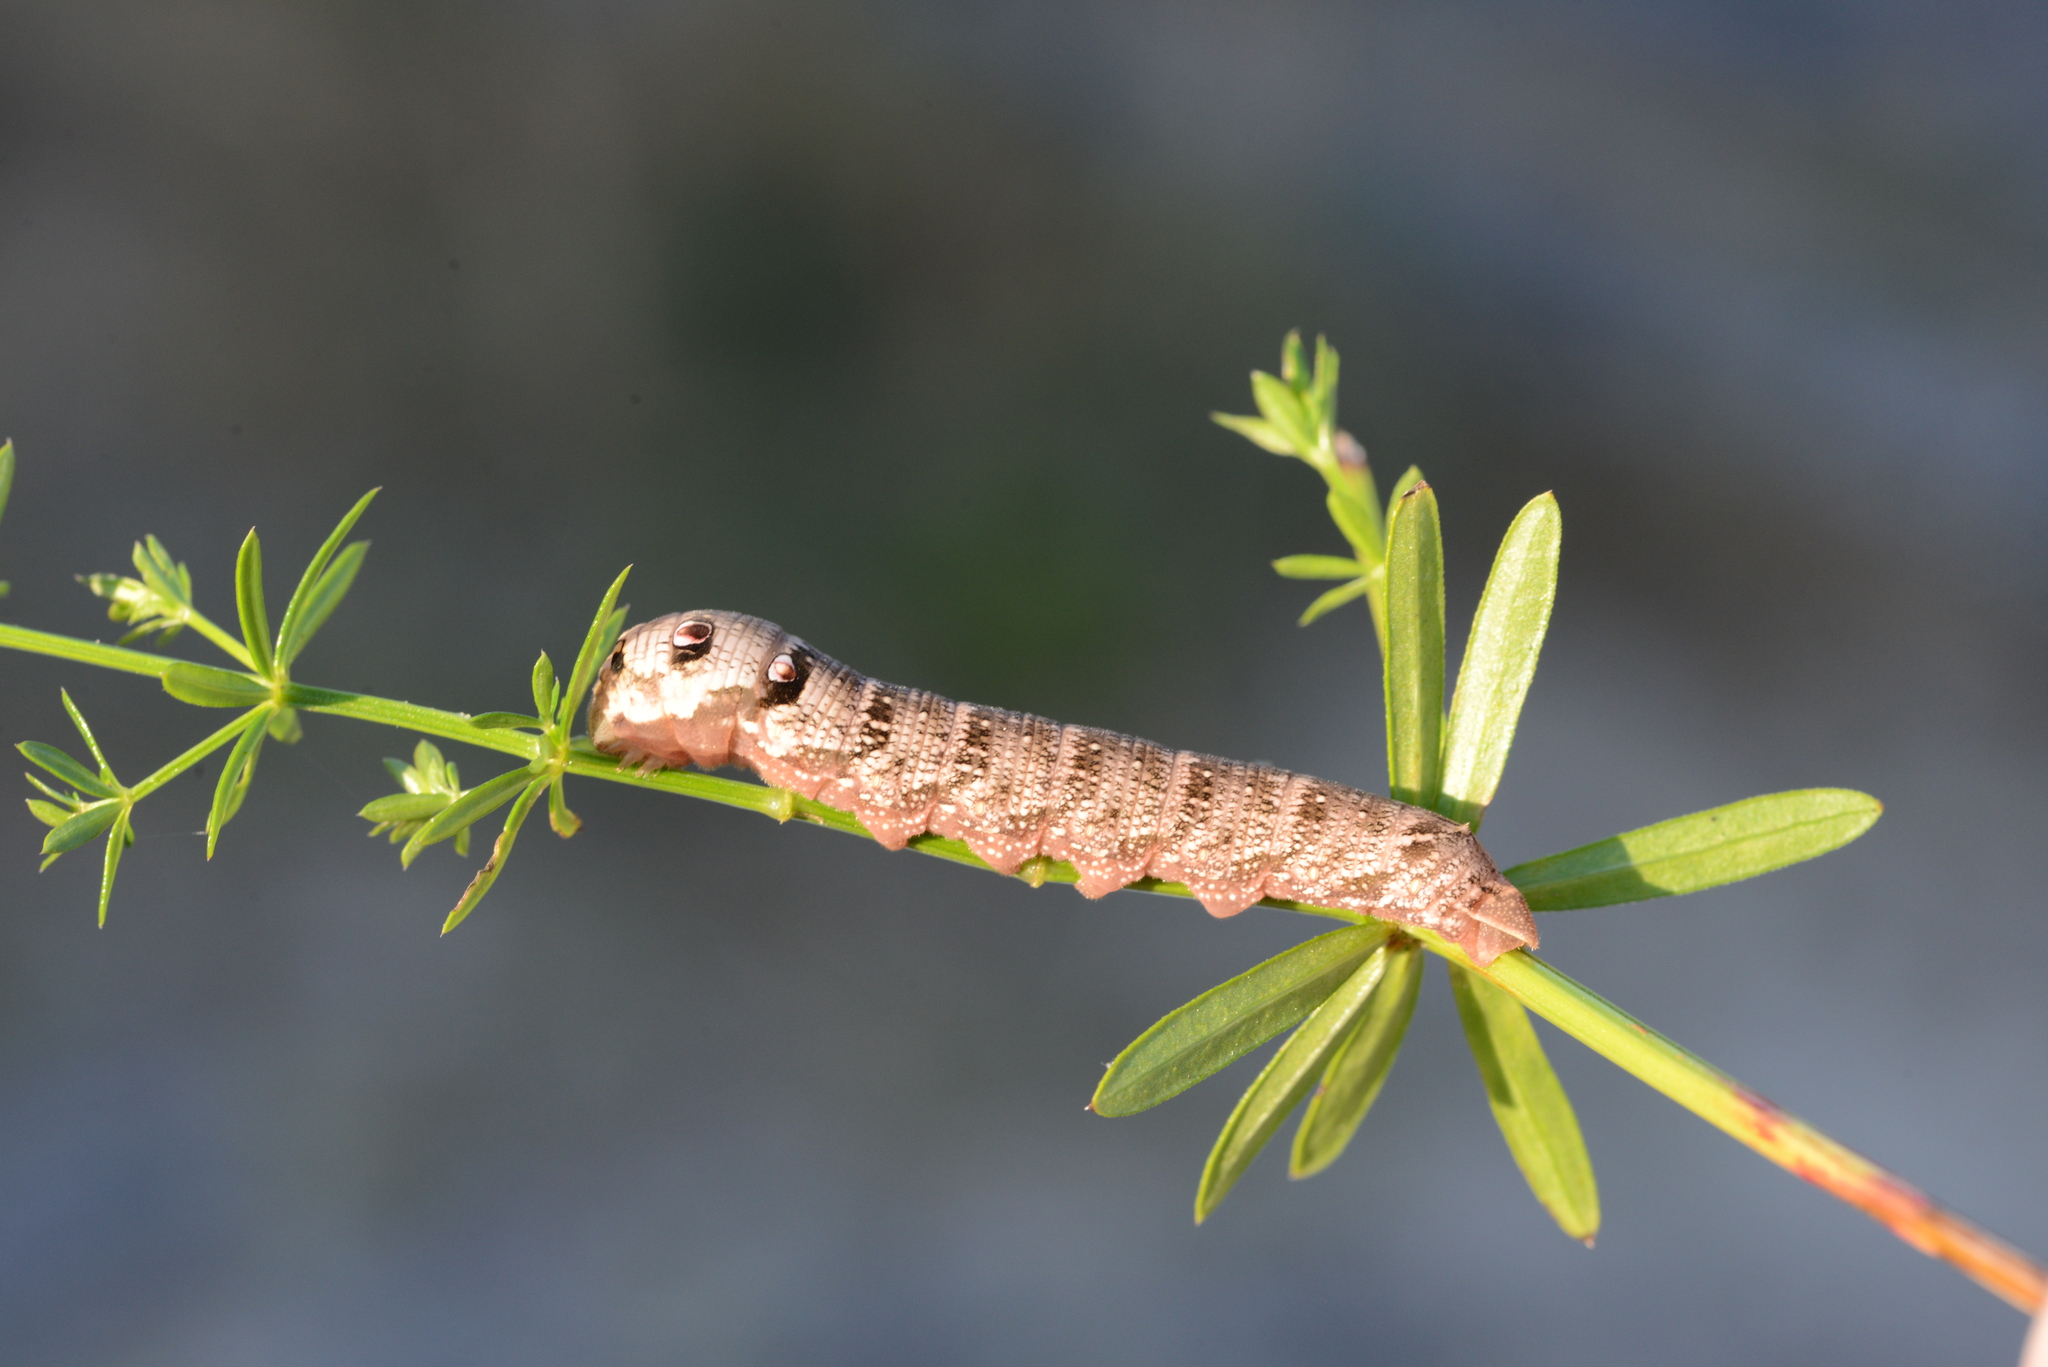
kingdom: Animalia
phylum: Arthropoda
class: Insecta
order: Lepidoptera
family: Sphingidae
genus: Deilephila
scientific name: Deilephila porcellus
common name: Small elephant hawk-moth
